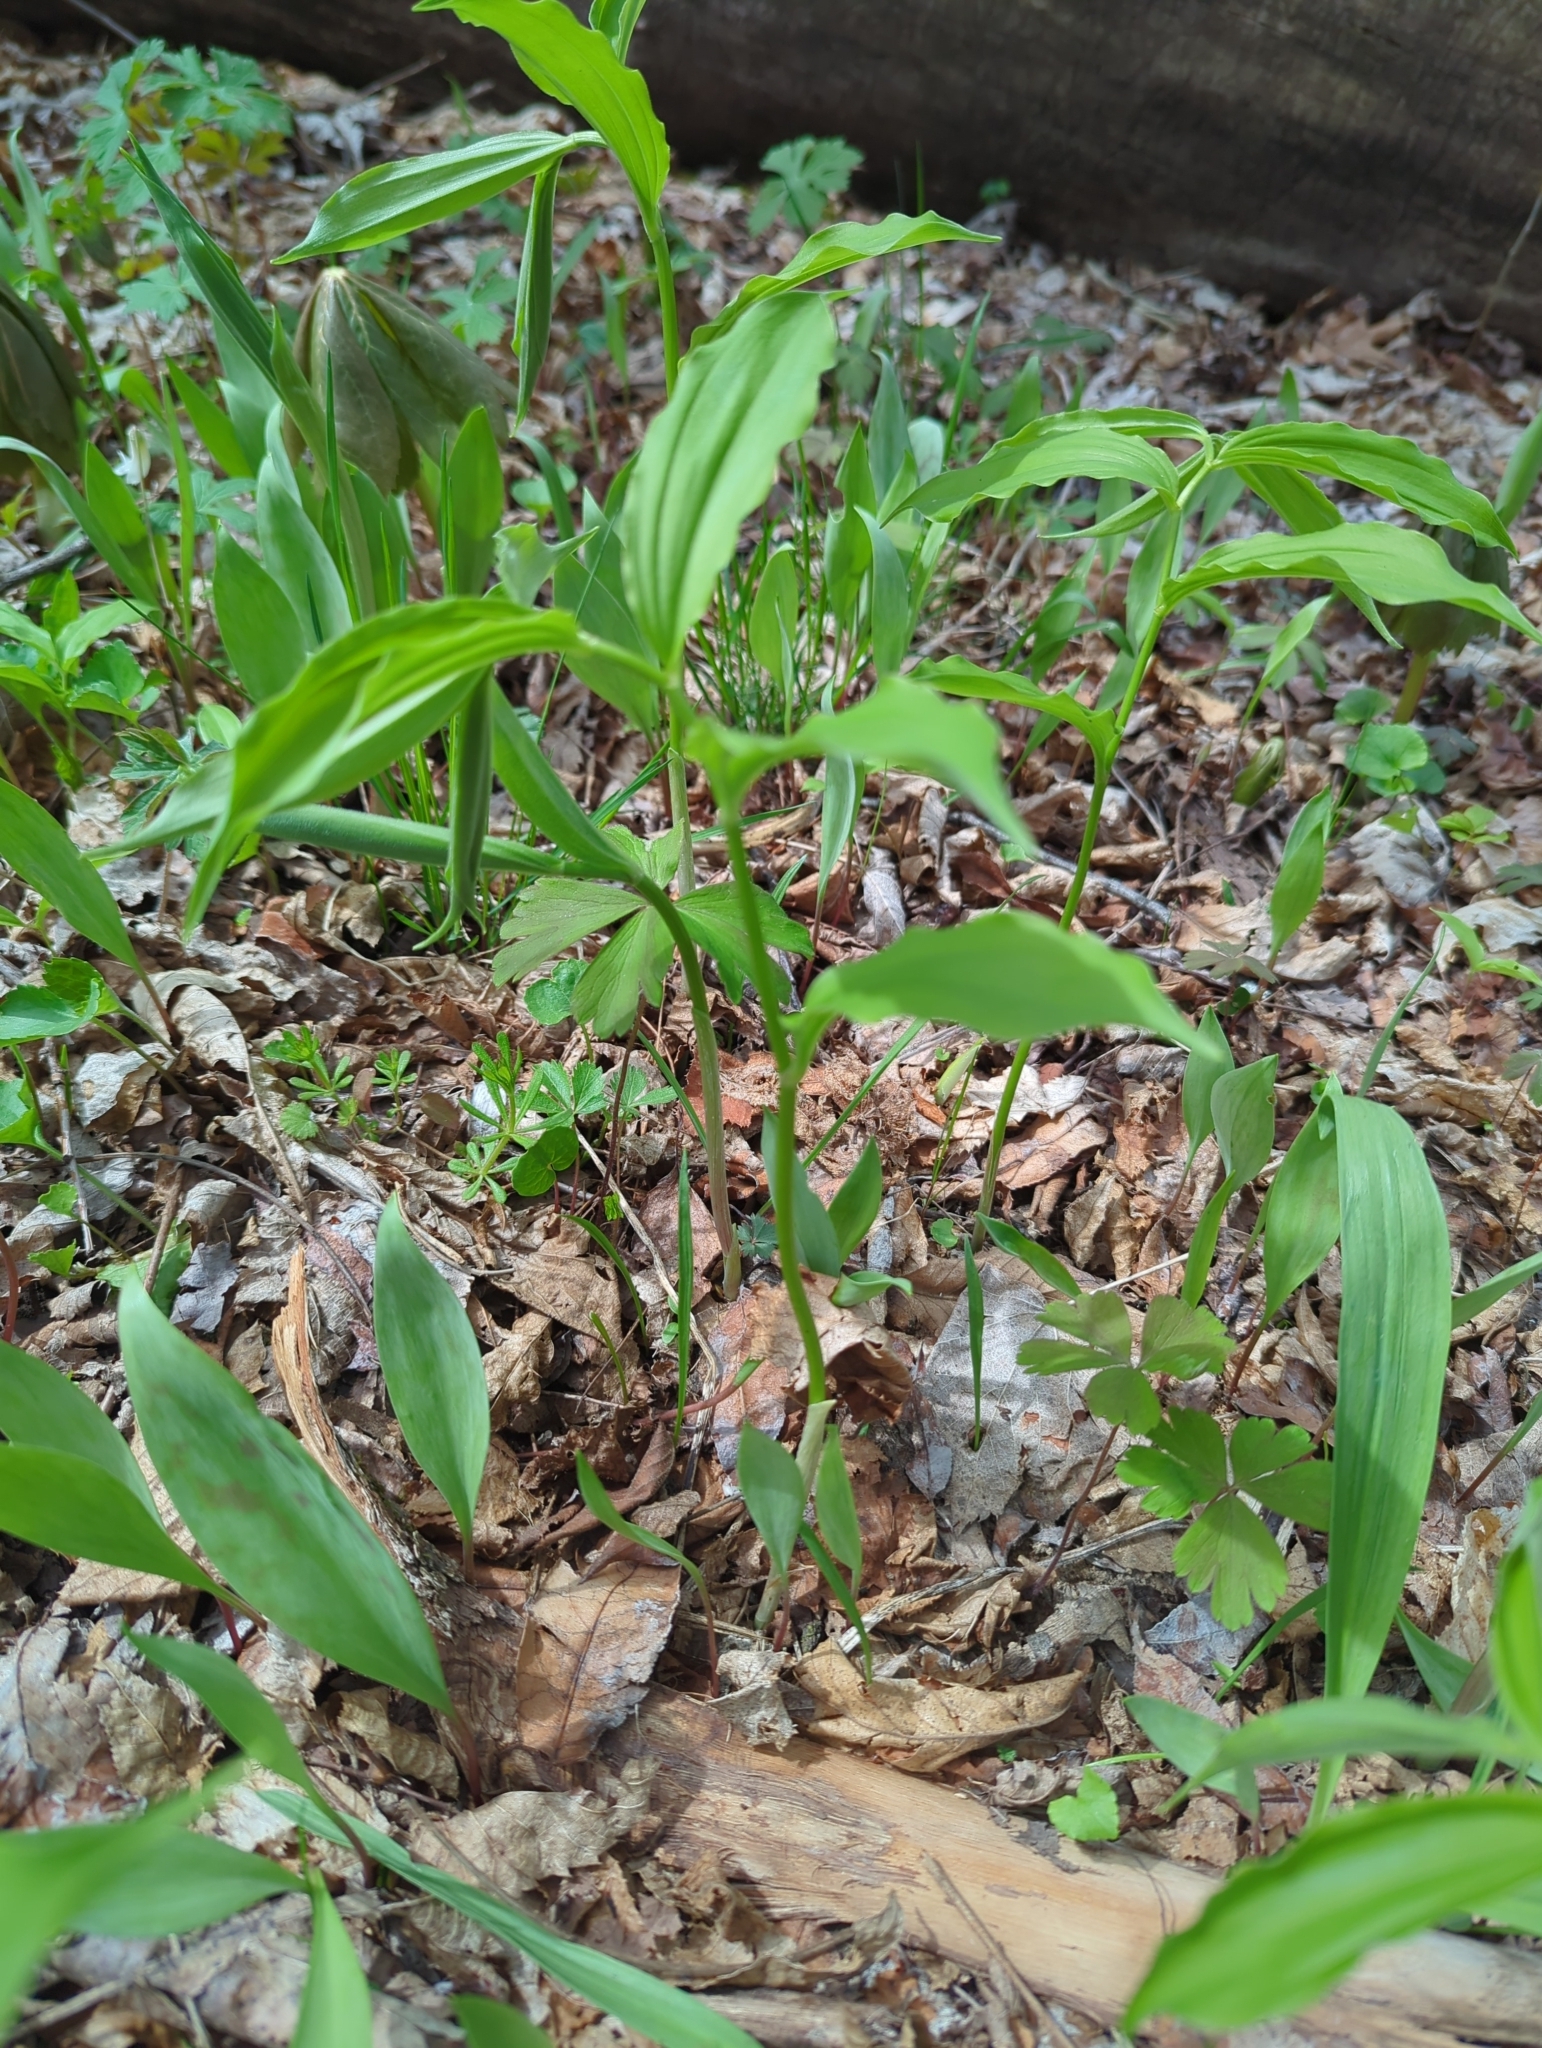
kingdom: Plantae
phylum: Tracheophyta
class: Liliopsida
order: Asparagales
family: Asparagaceae
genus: Maianthemum
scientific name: Maianthemum racemosum
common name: False spikenard
